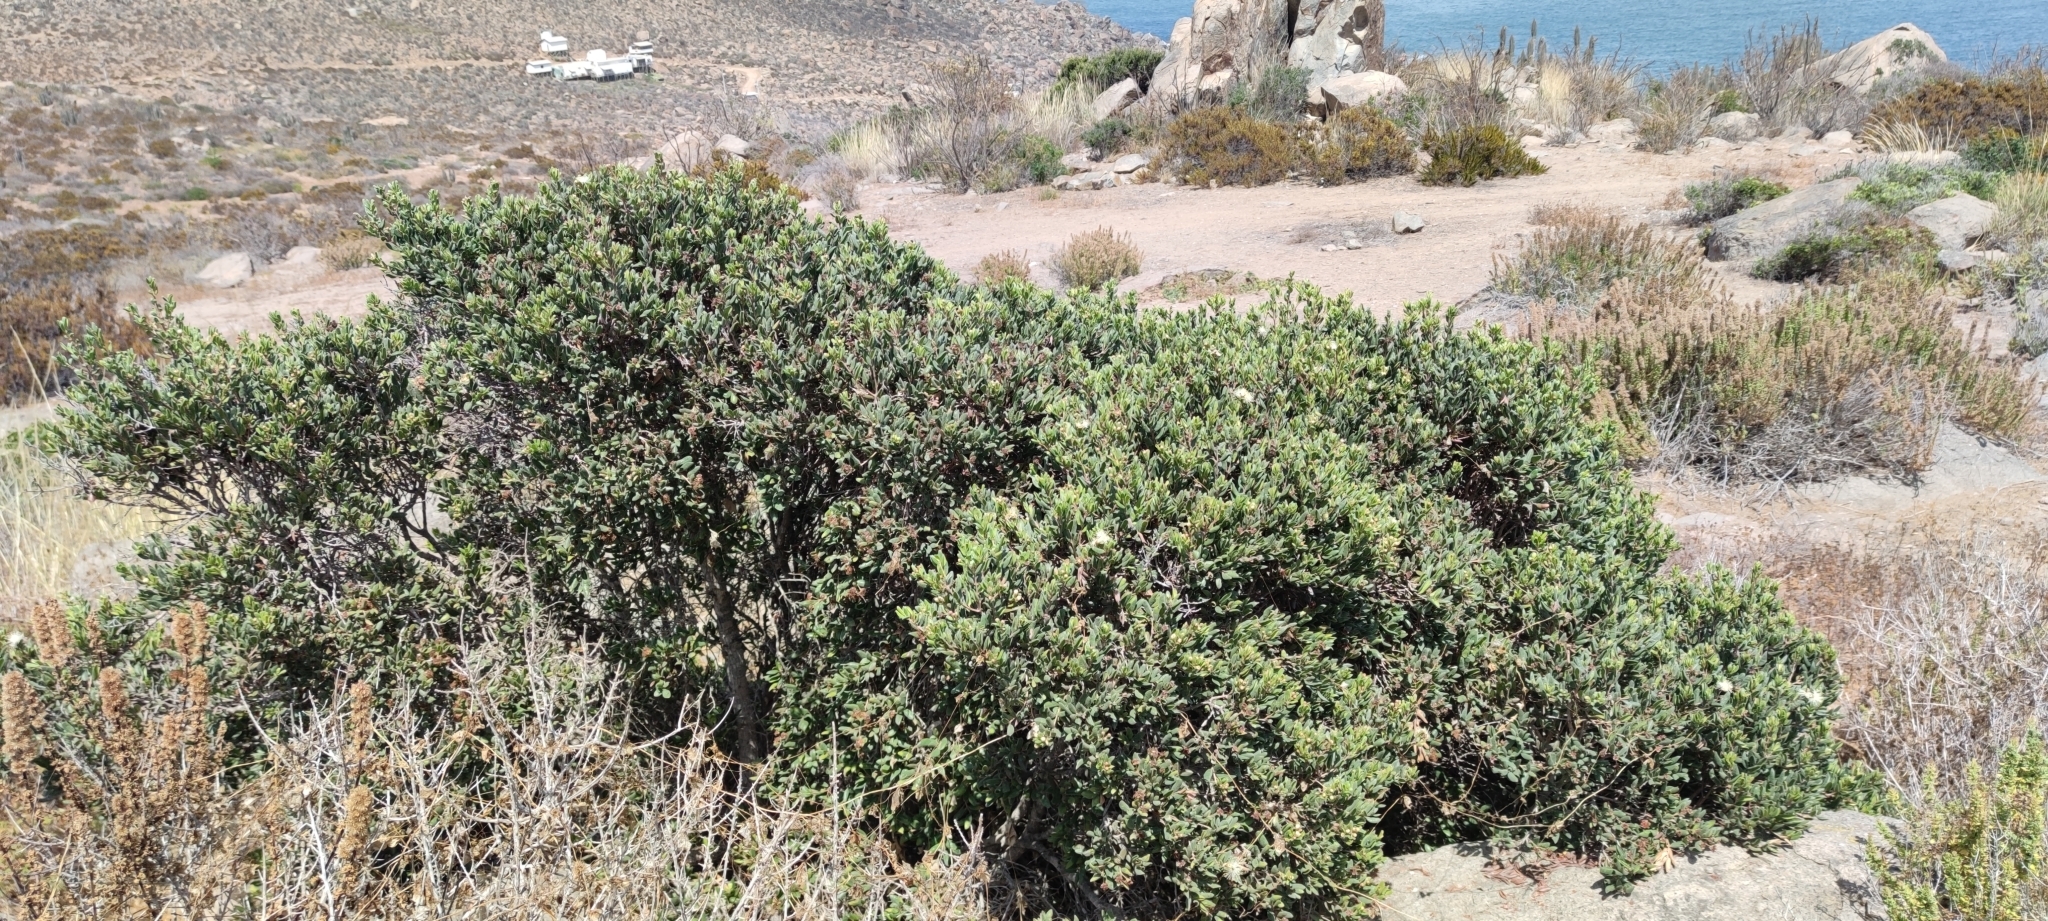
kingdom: Plantae
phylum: Tracheophyta
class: Magnoliopsida
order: Myrtales
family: Myrtaceae
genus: Myrcianthes
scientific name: Myrcianthes coquimbensis
